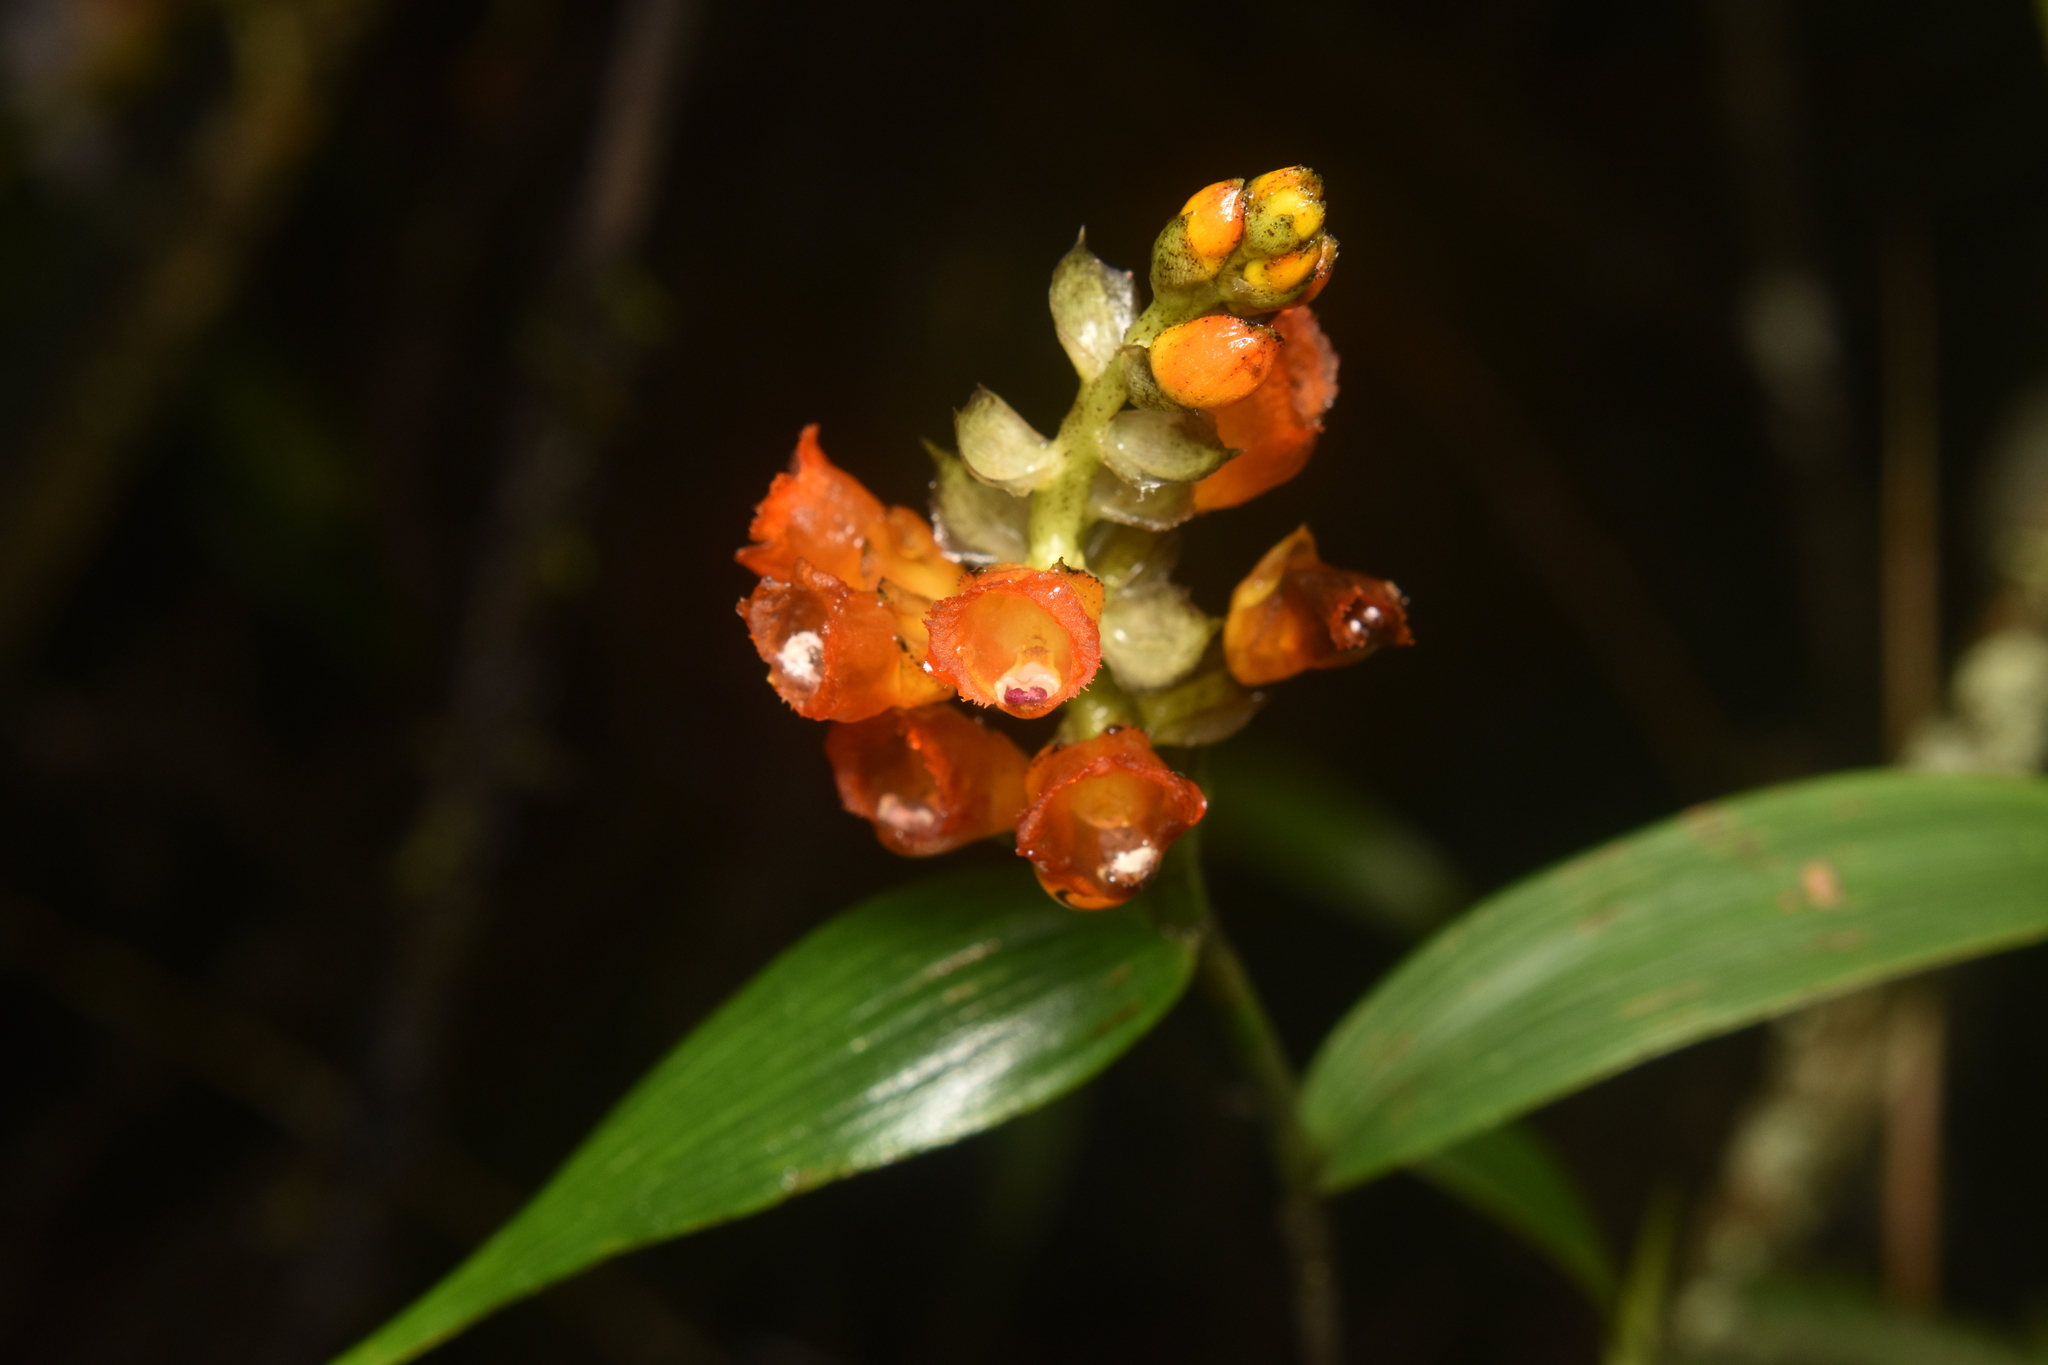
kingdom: Plantae
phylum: Tracheophyta
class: Liliopsida
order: Asparagales
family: Orchidaceae
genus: Elleanthus
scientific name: Elleanthus aurantiacus
